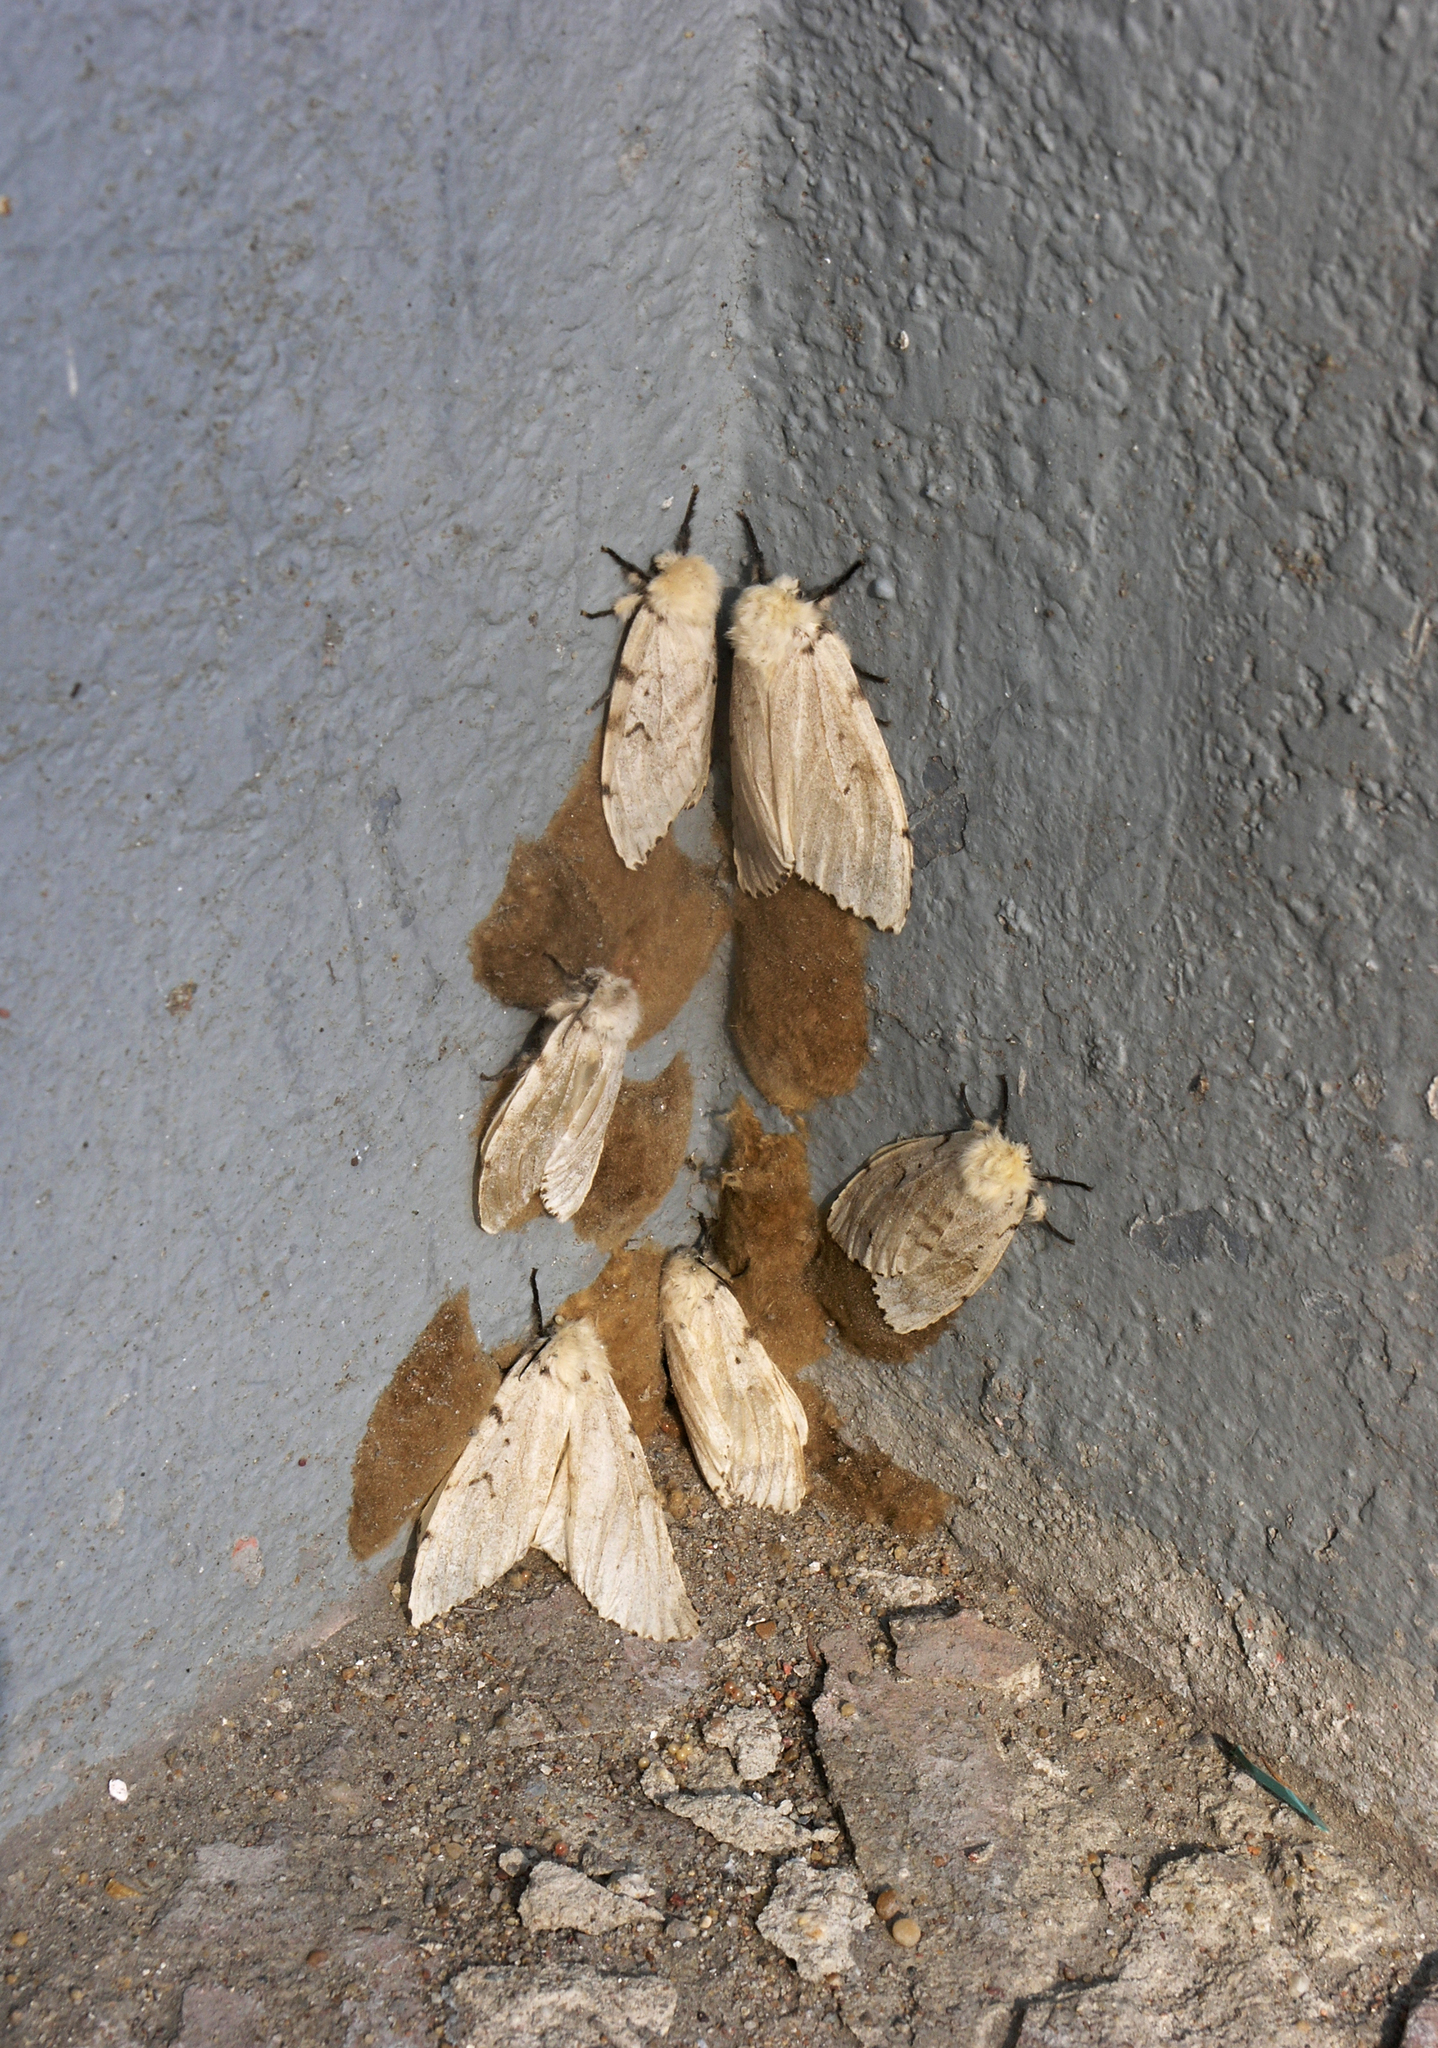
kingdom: Animalia
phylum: Arthropoda
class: Insecta
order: Lepidoptera
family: Erebidae
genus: Lymantria
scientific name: Lymantria dispar
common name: Gypsy moth
